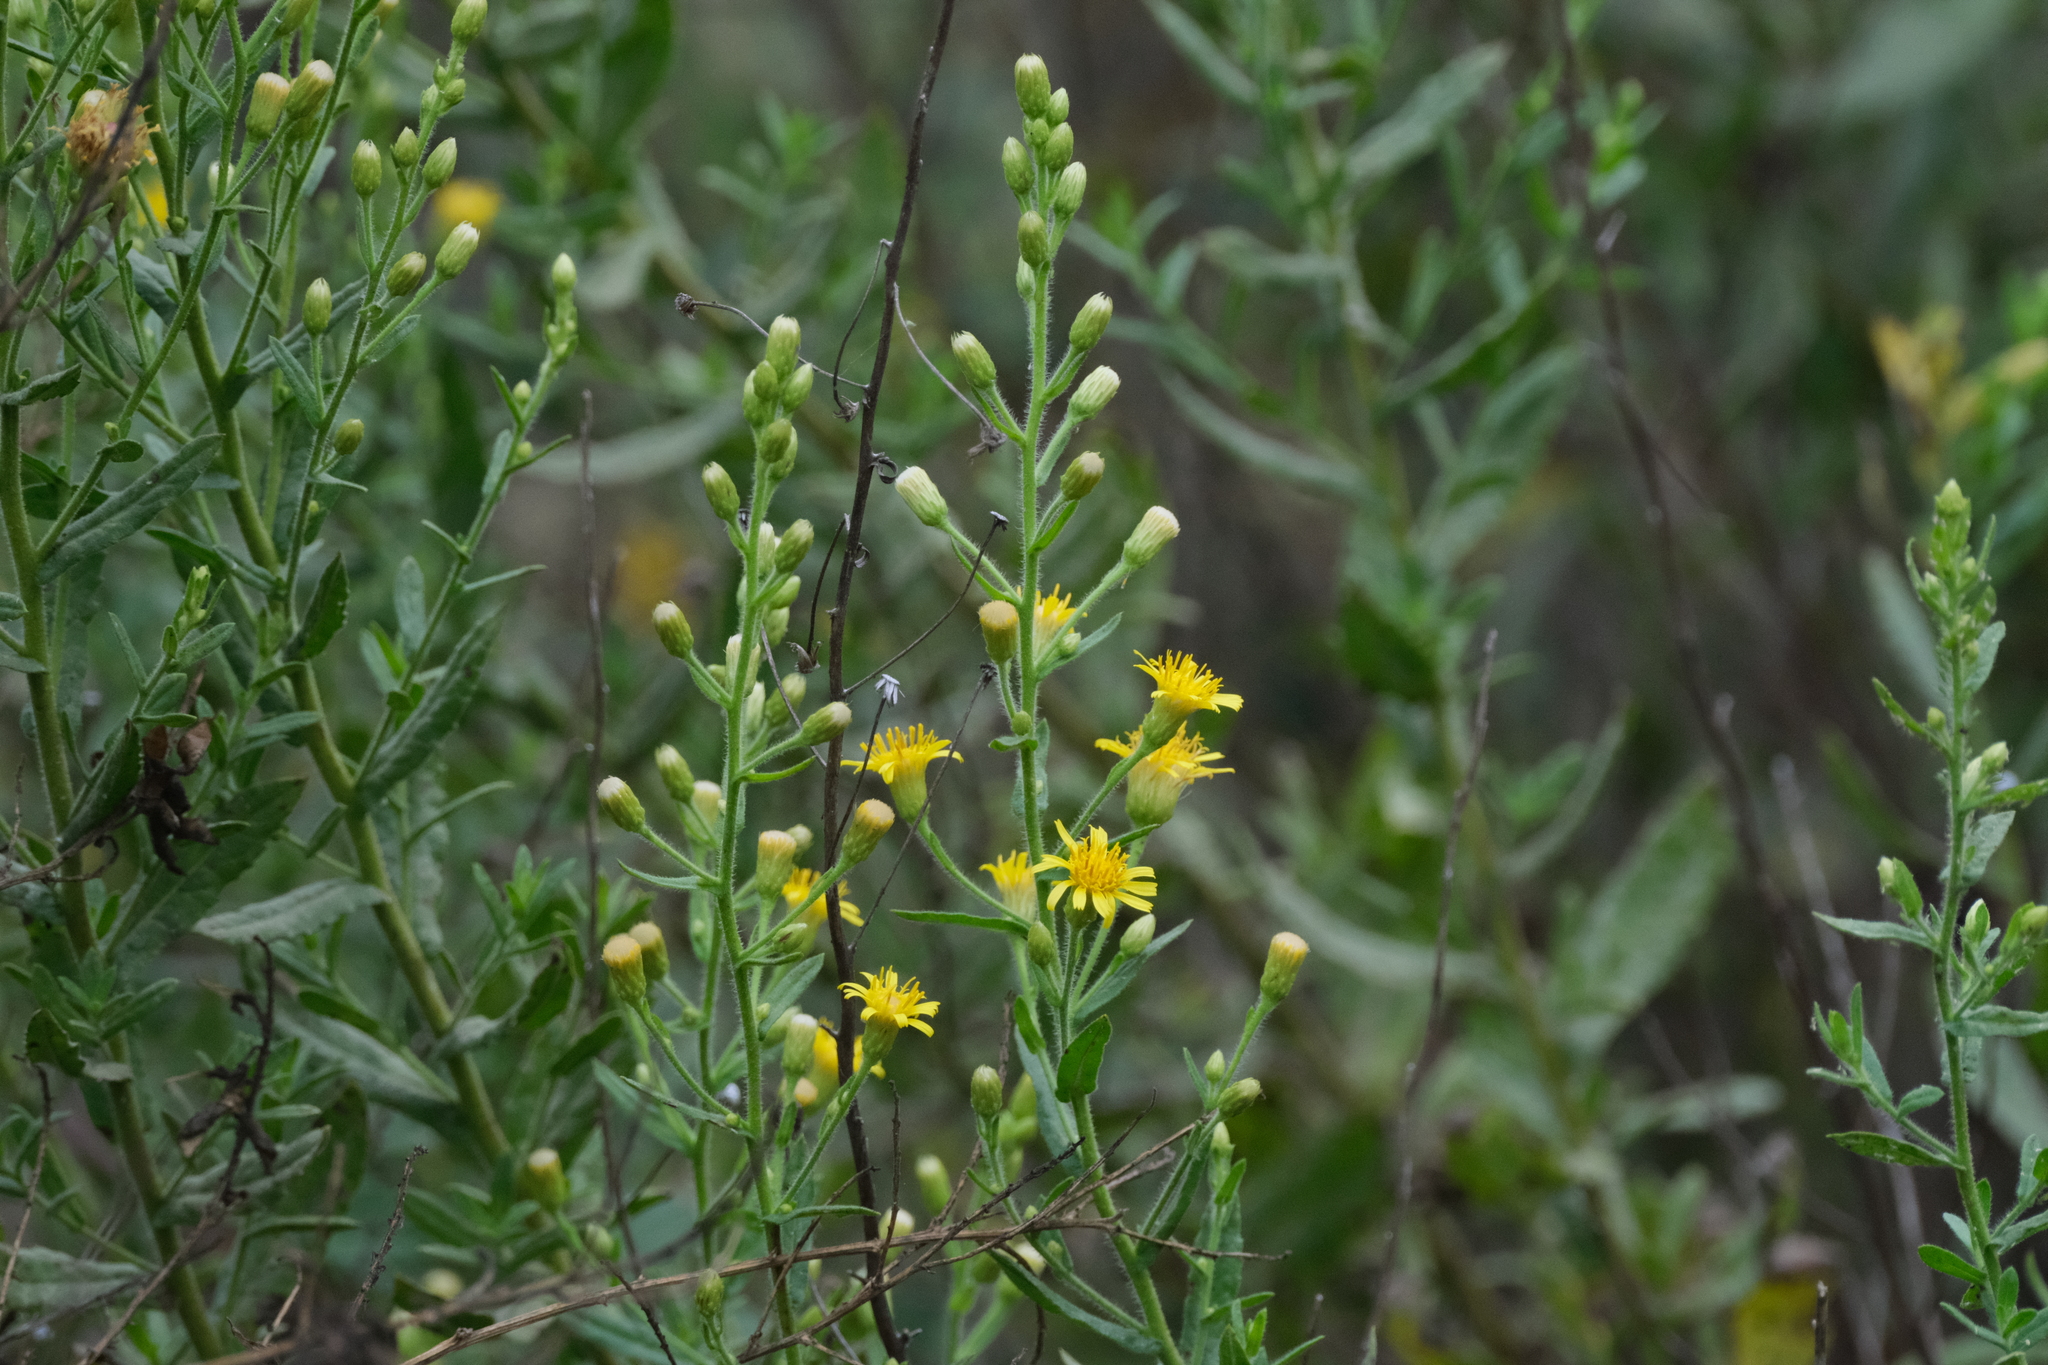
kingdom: Plantae
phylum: Tracheophyta
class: Magnoliopsida
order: Asterales
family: Asteraceae
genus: Dittrichia
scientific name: Dittrichia viscosa
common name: Woody fleabane
